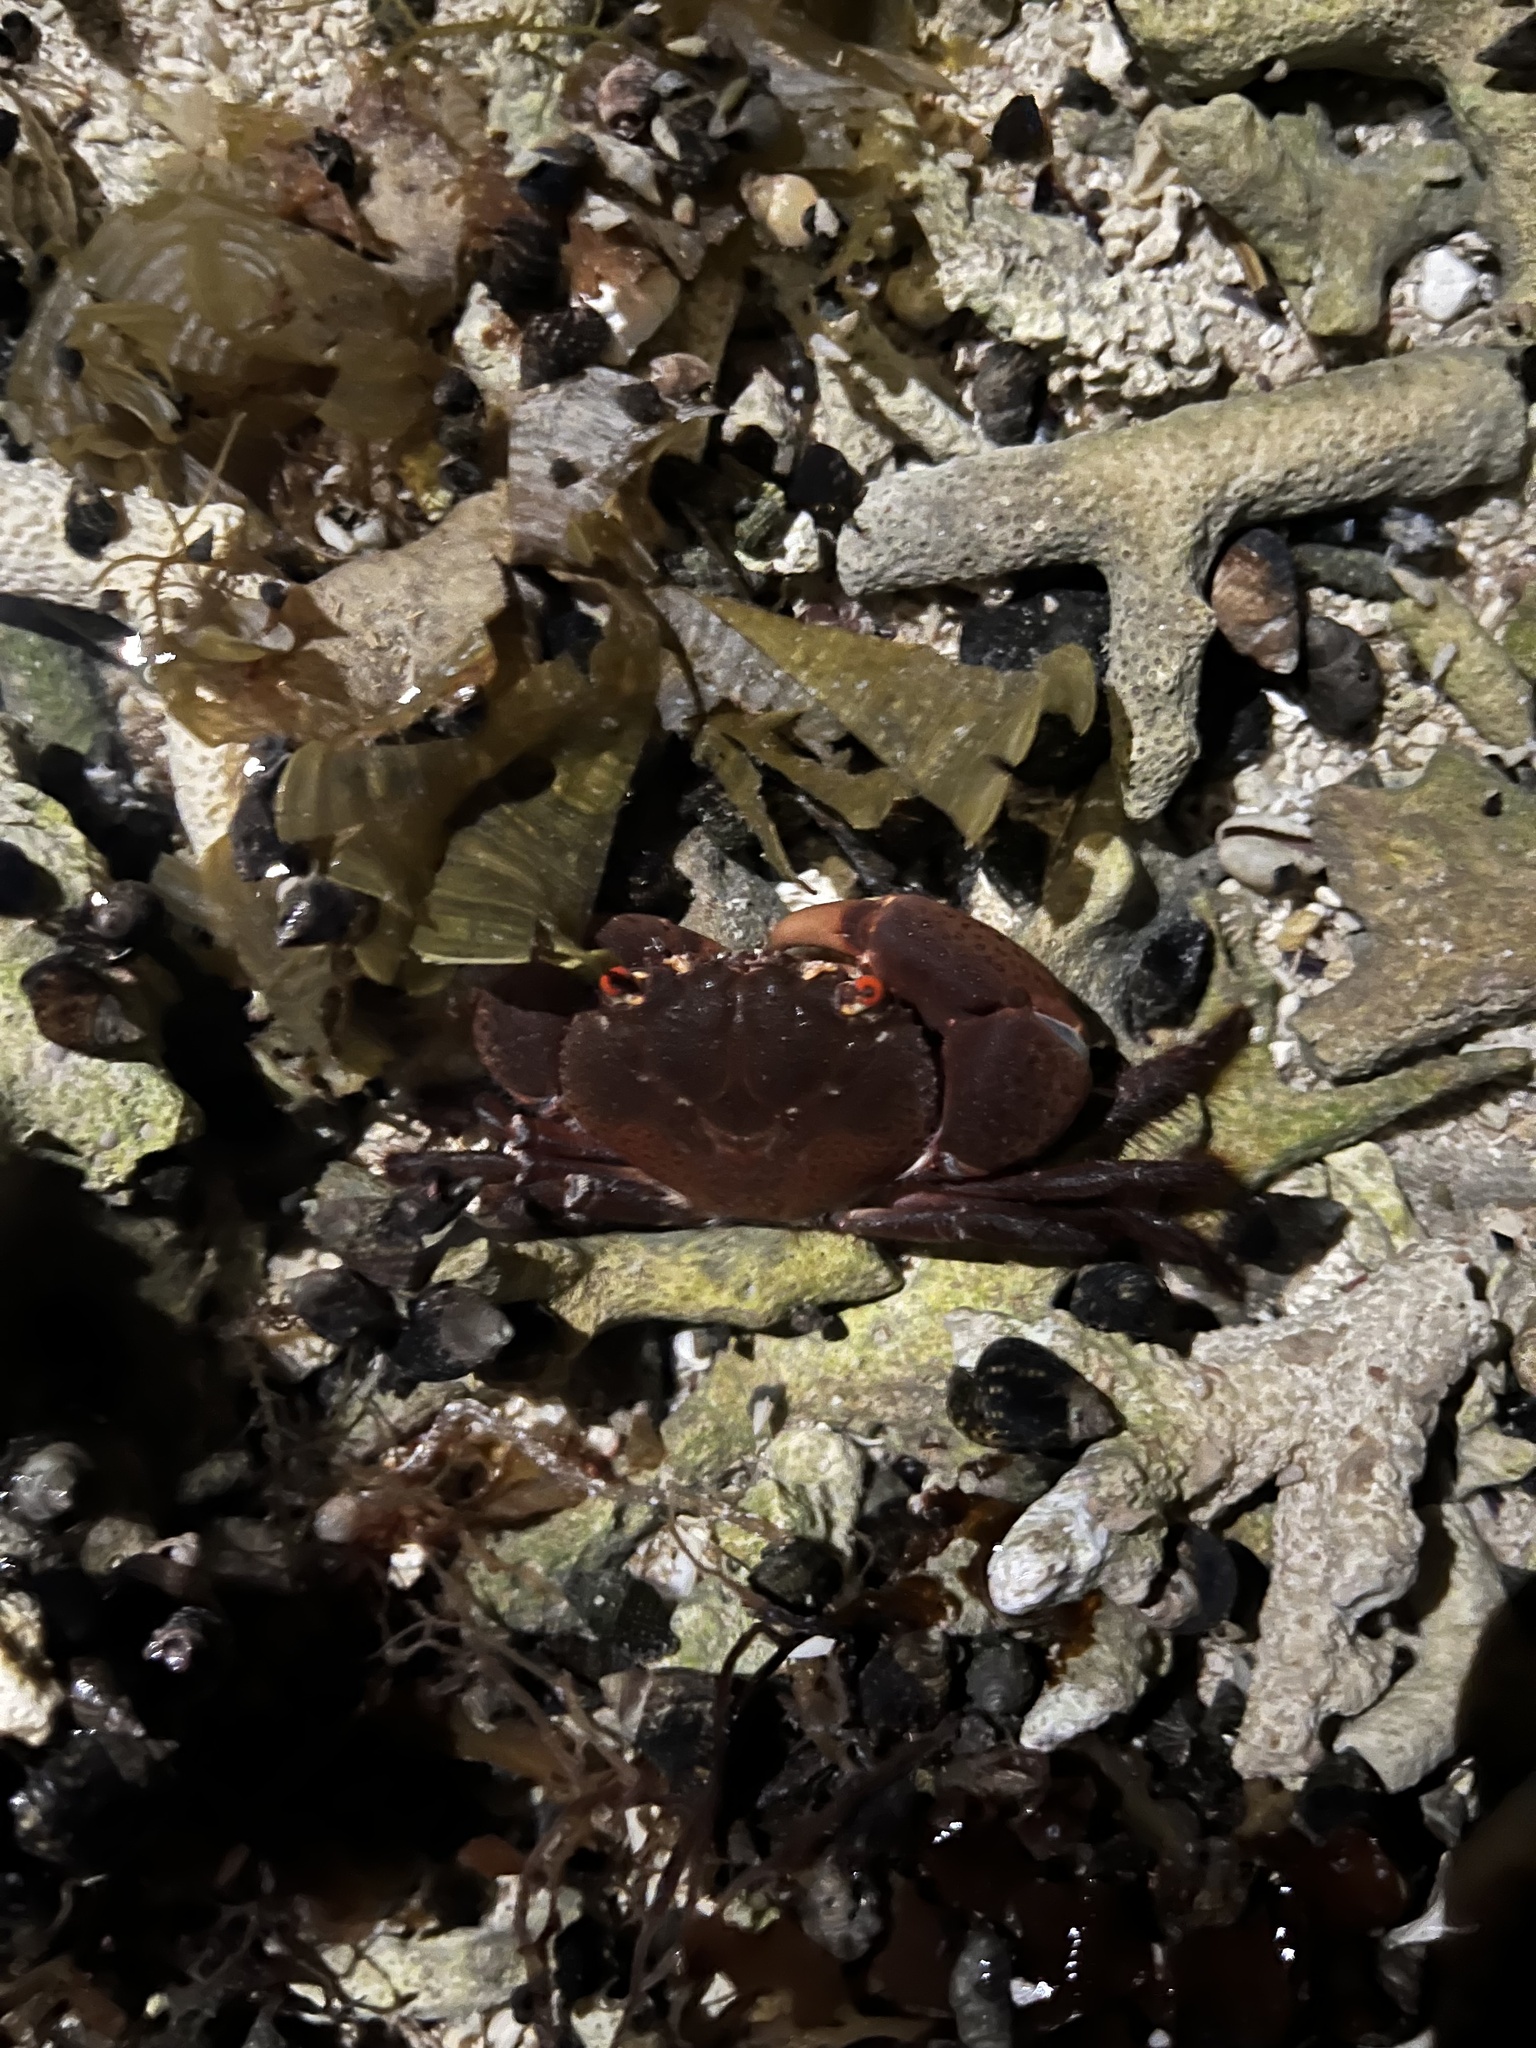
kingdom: Animalia
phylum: Arthropoda
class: Malacostraca
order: Decapoda
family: Eriphiidae
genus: Eriphia
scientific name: Eriphia sebana
